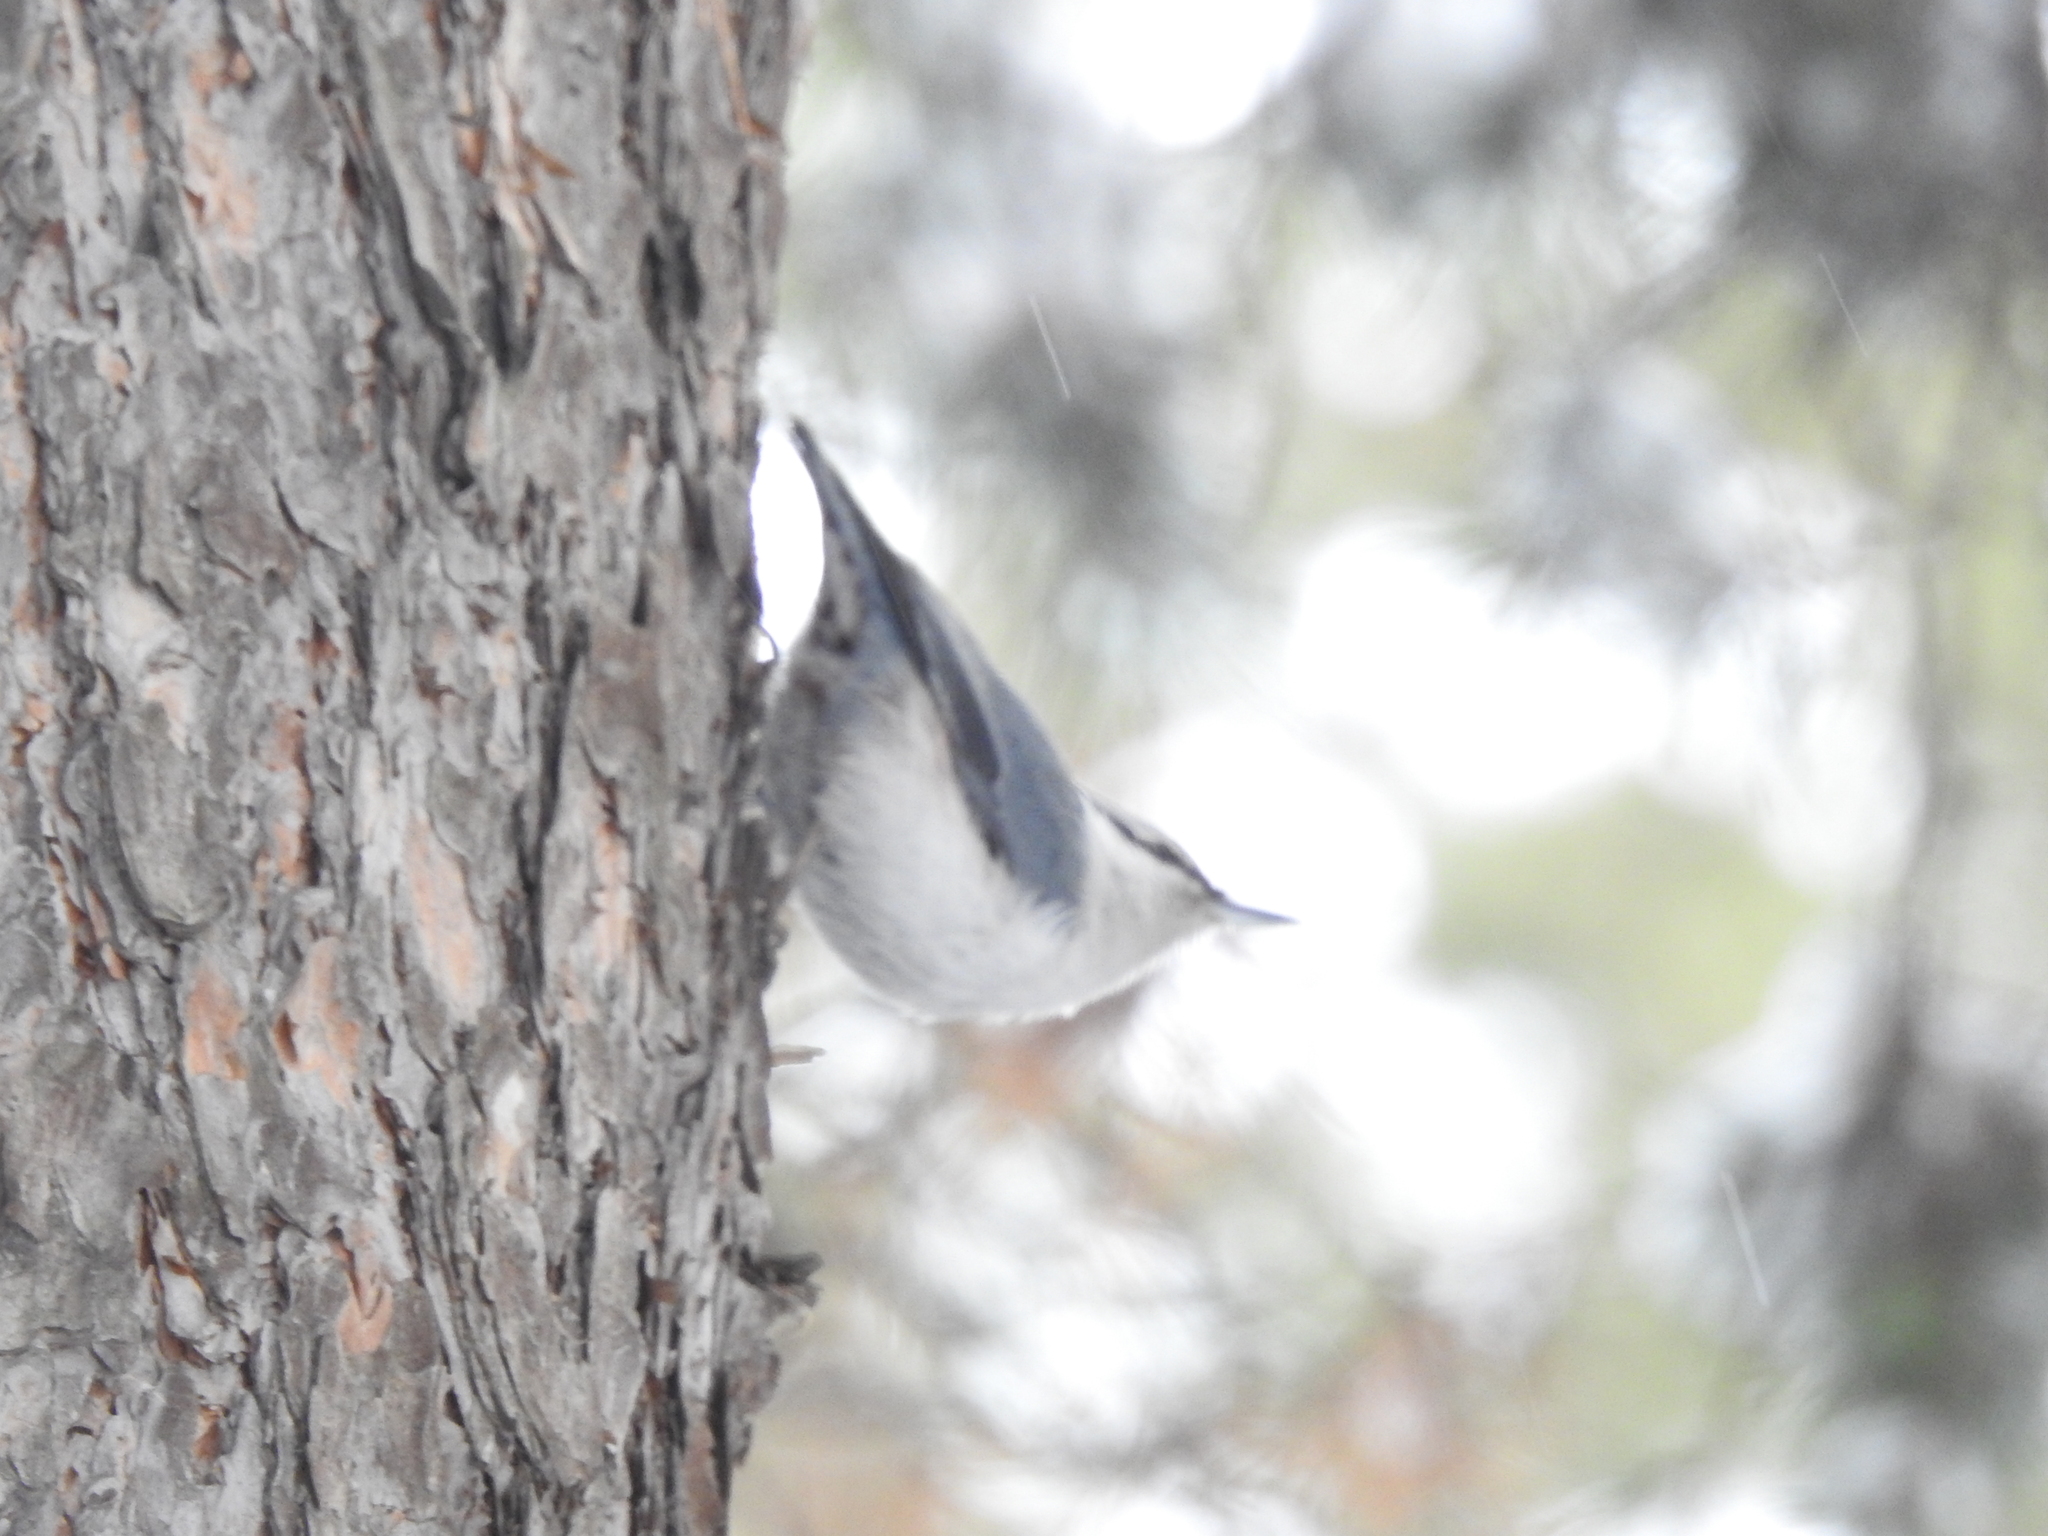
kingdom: Animalia
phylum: Chordata
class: Aves
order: Passeriformes
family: Sittidae
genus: Sitta
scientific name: Sitta europaea
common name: Eurasian nuthatch
